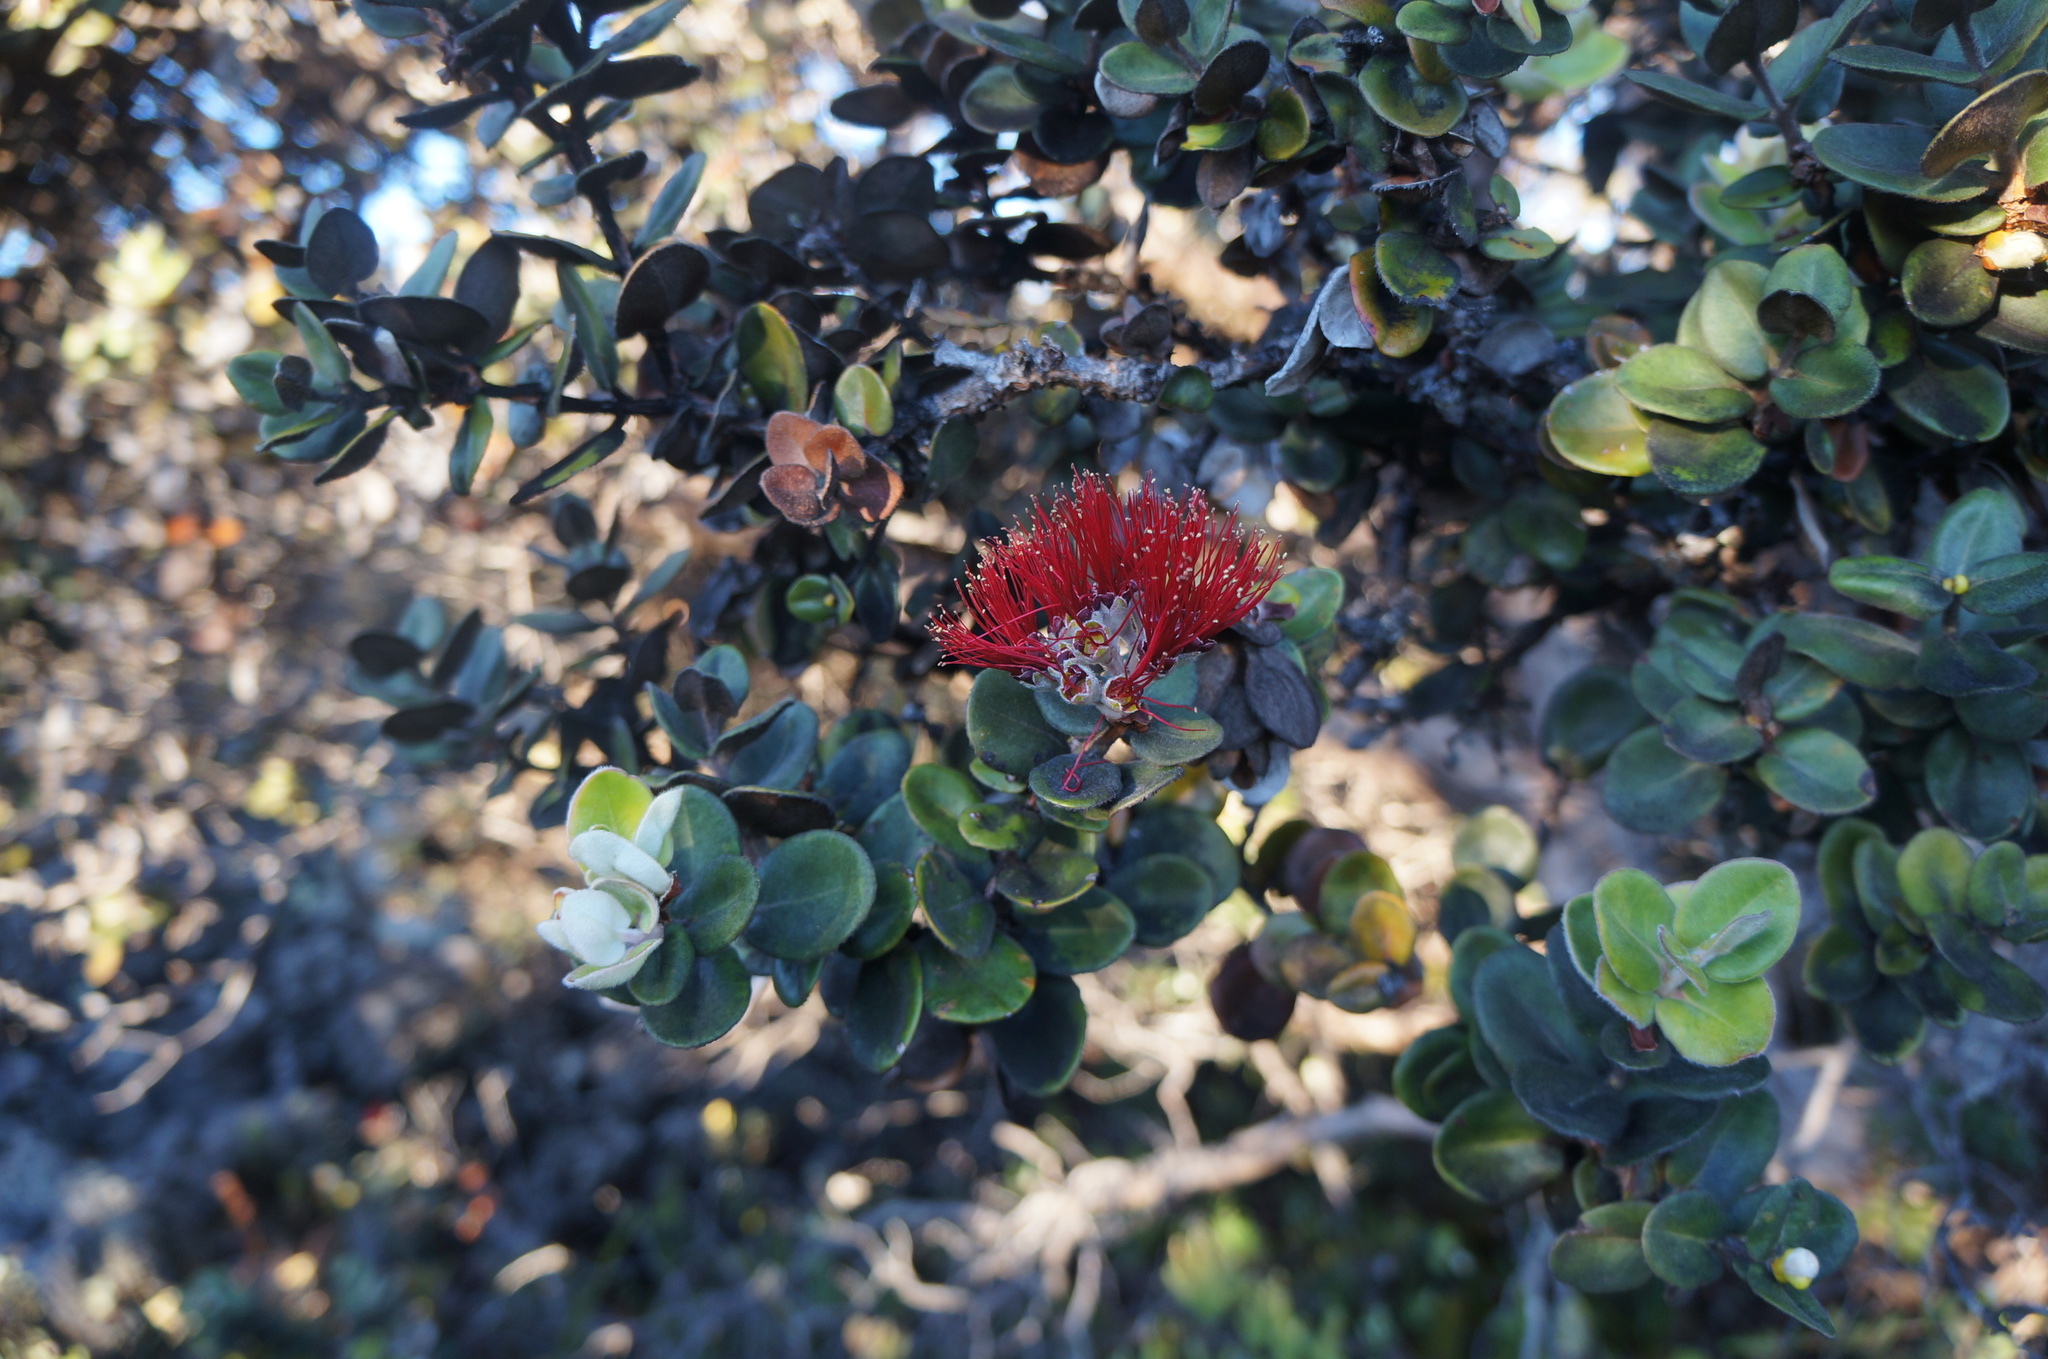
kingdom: Plantae
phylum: Tracheophyta
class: Magnoliopsida
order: Myrtales
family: Myrtaceae
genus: Metrosideros
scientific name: Metrosideros polymorpha
